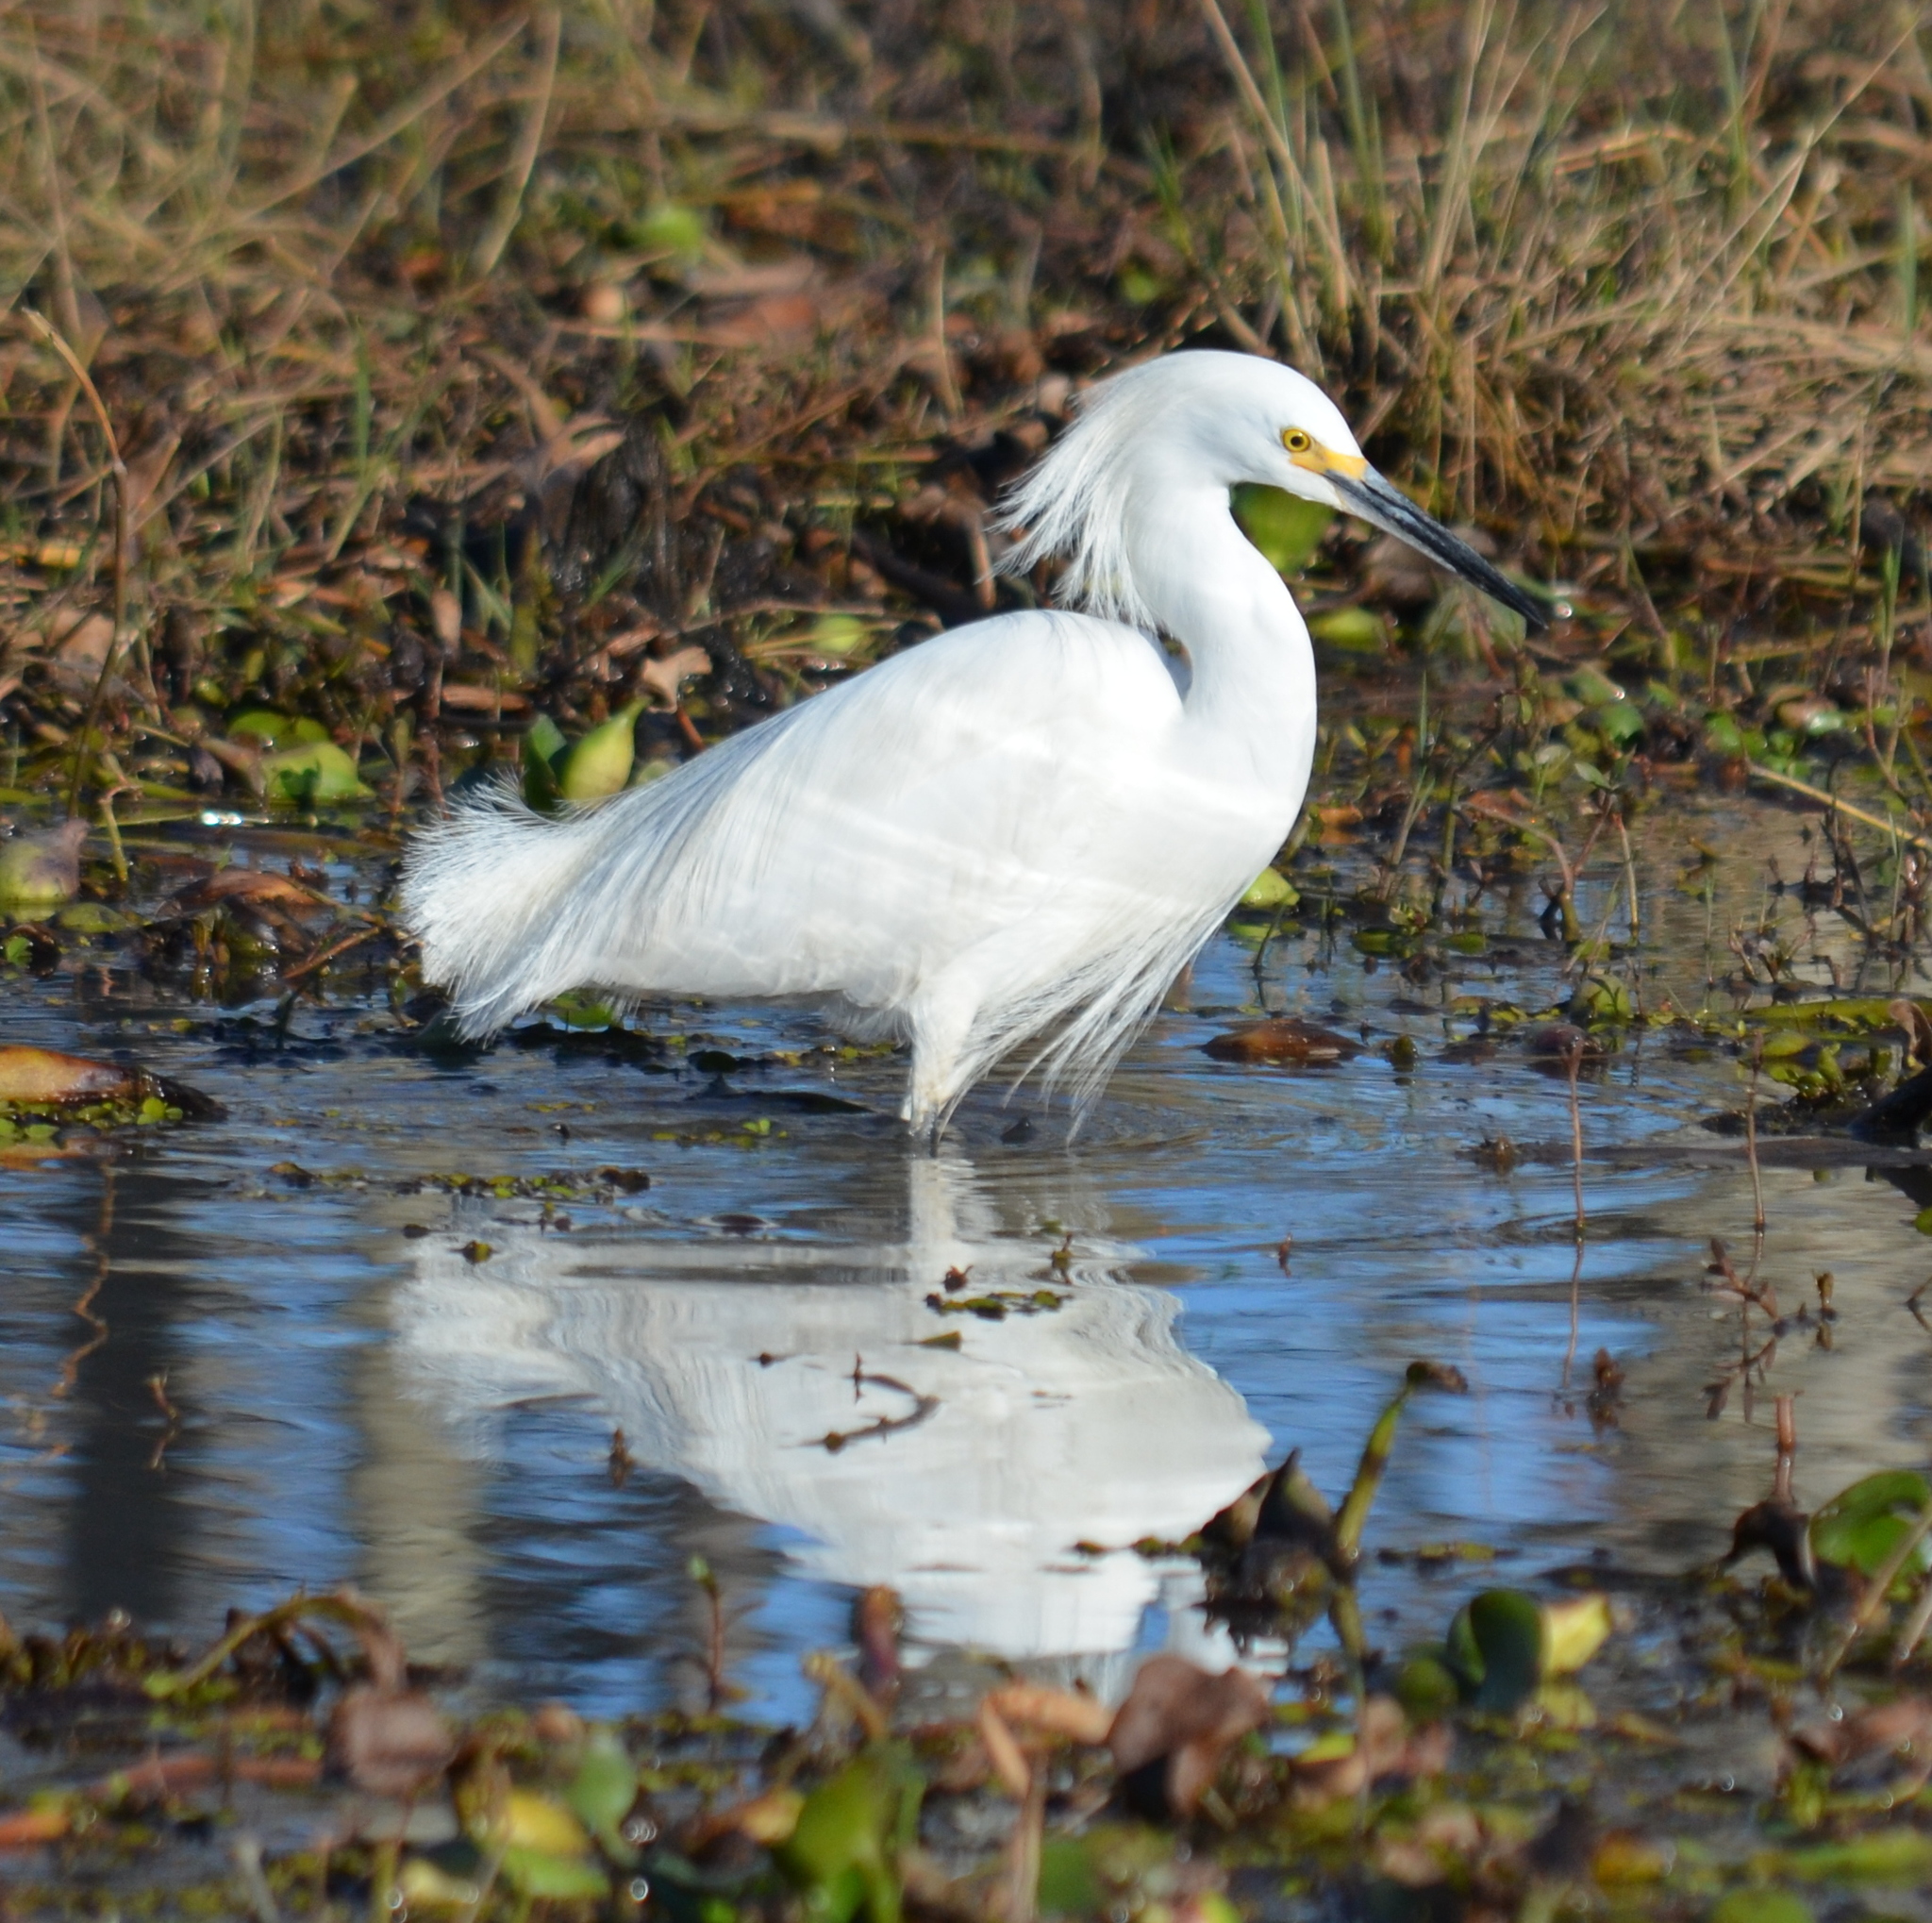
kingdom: Animalia
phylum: Chordata
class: Aves
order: Pelecaniformes
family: Ardeidae
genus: Egretta
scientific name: Egretta thula
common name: Snowy egret
